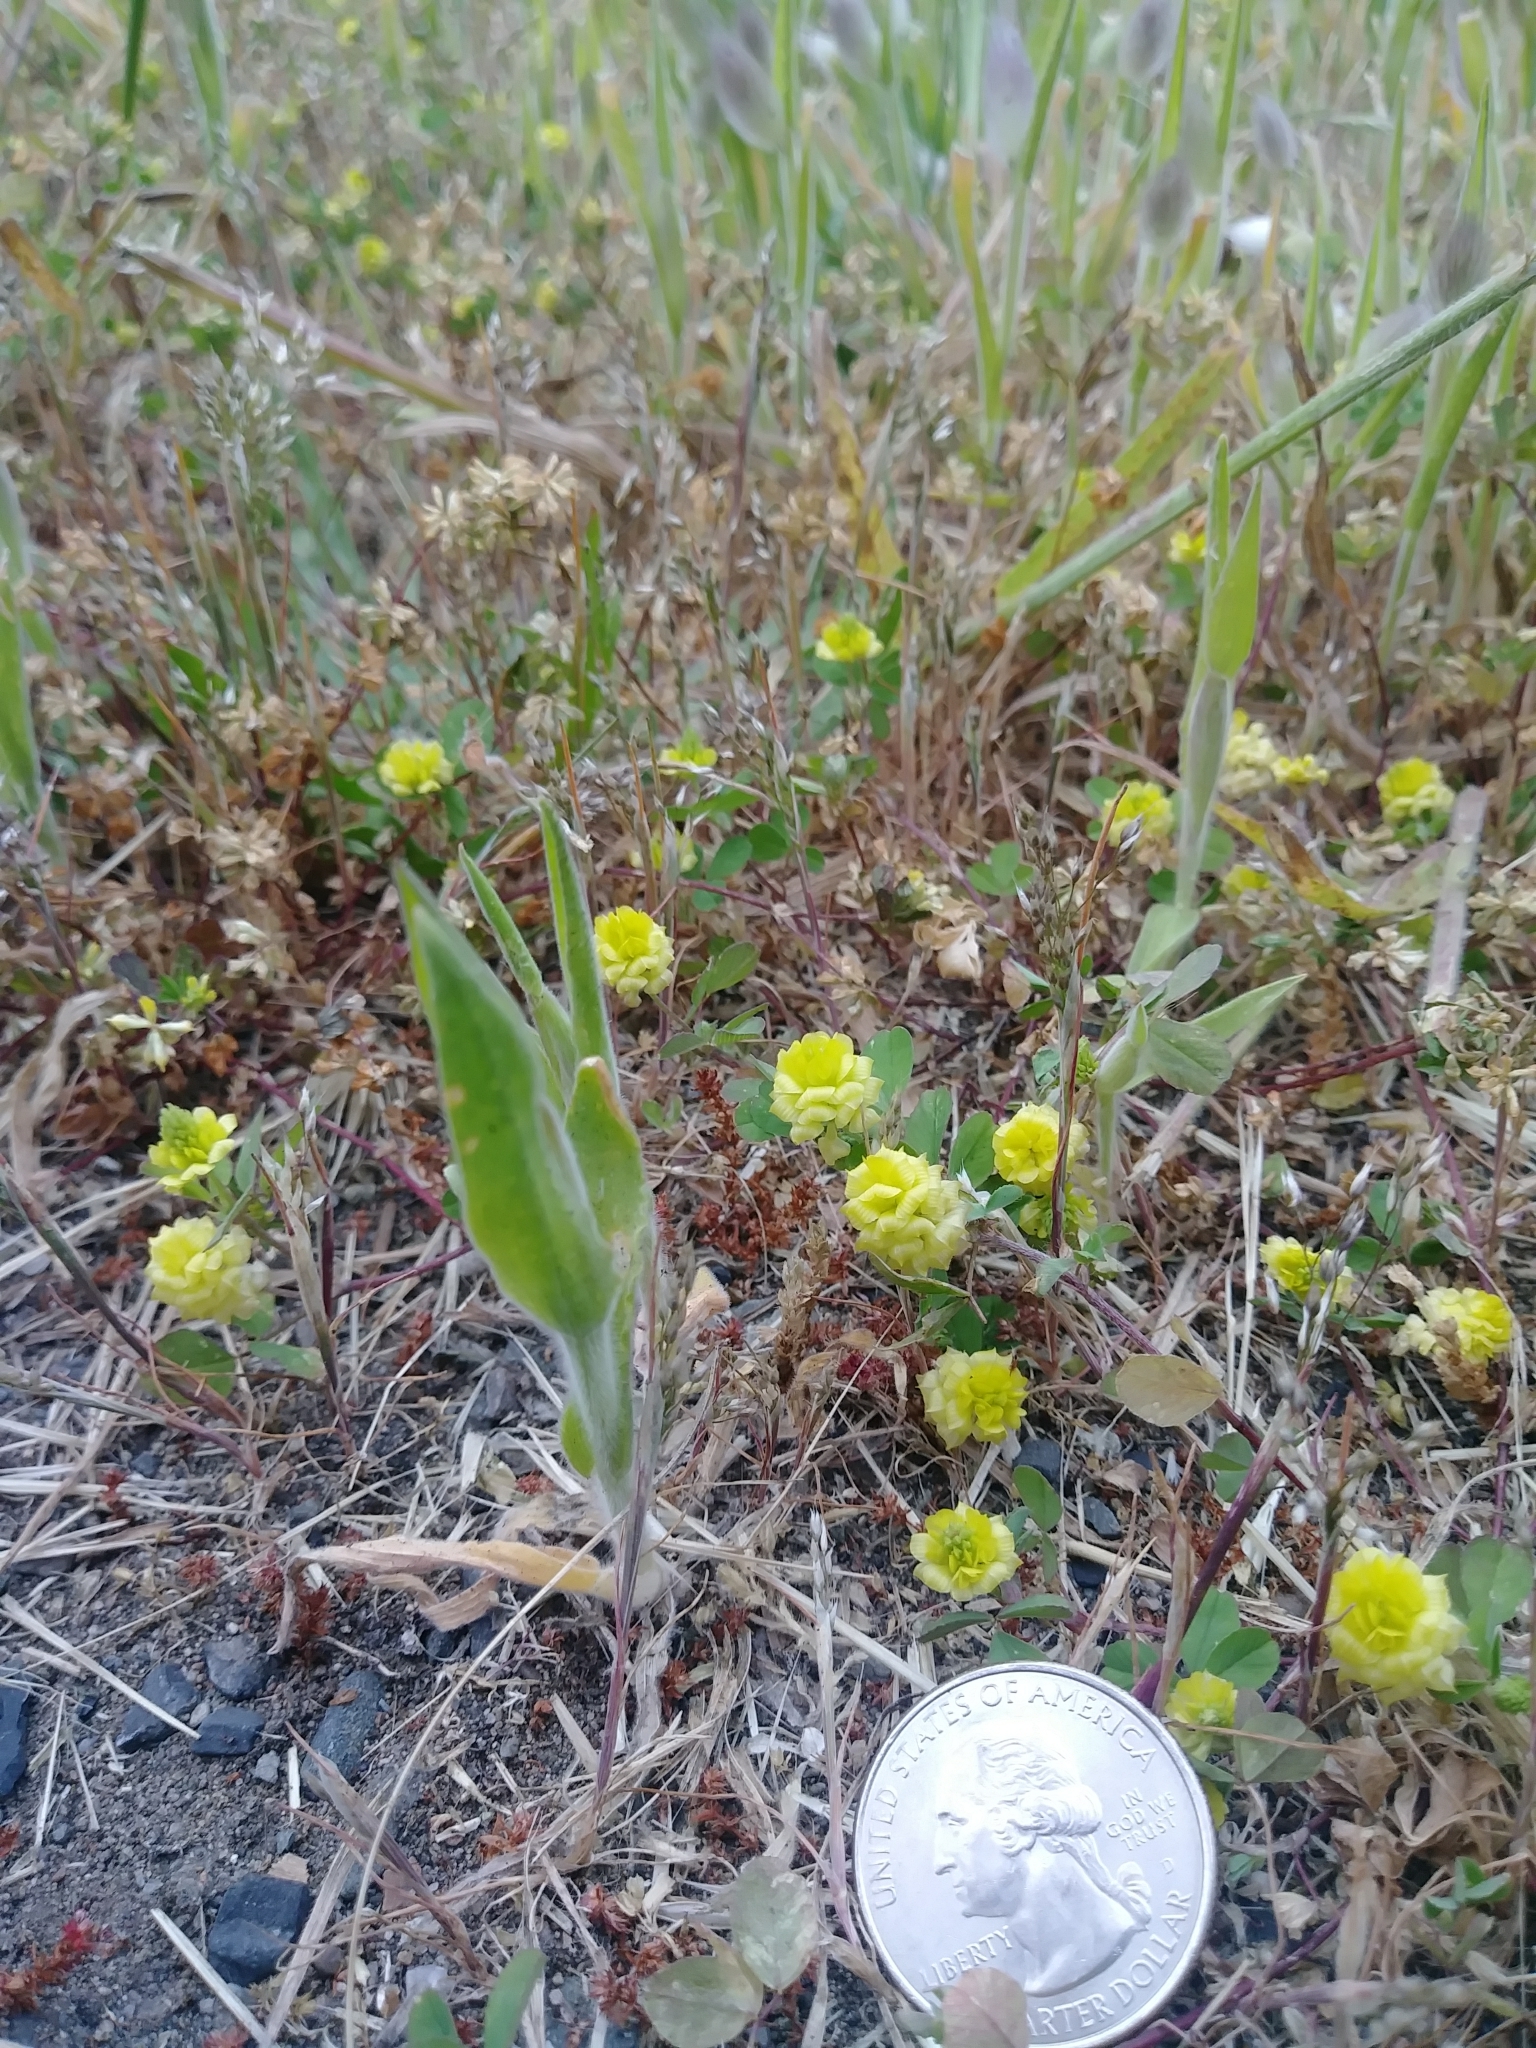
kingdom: Plantae
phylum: Tracheophyta
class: Magnoliopsida
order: Fabales
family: Fabaceae
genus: Trifolium
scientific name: Trifolium campestre
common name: Field clover
